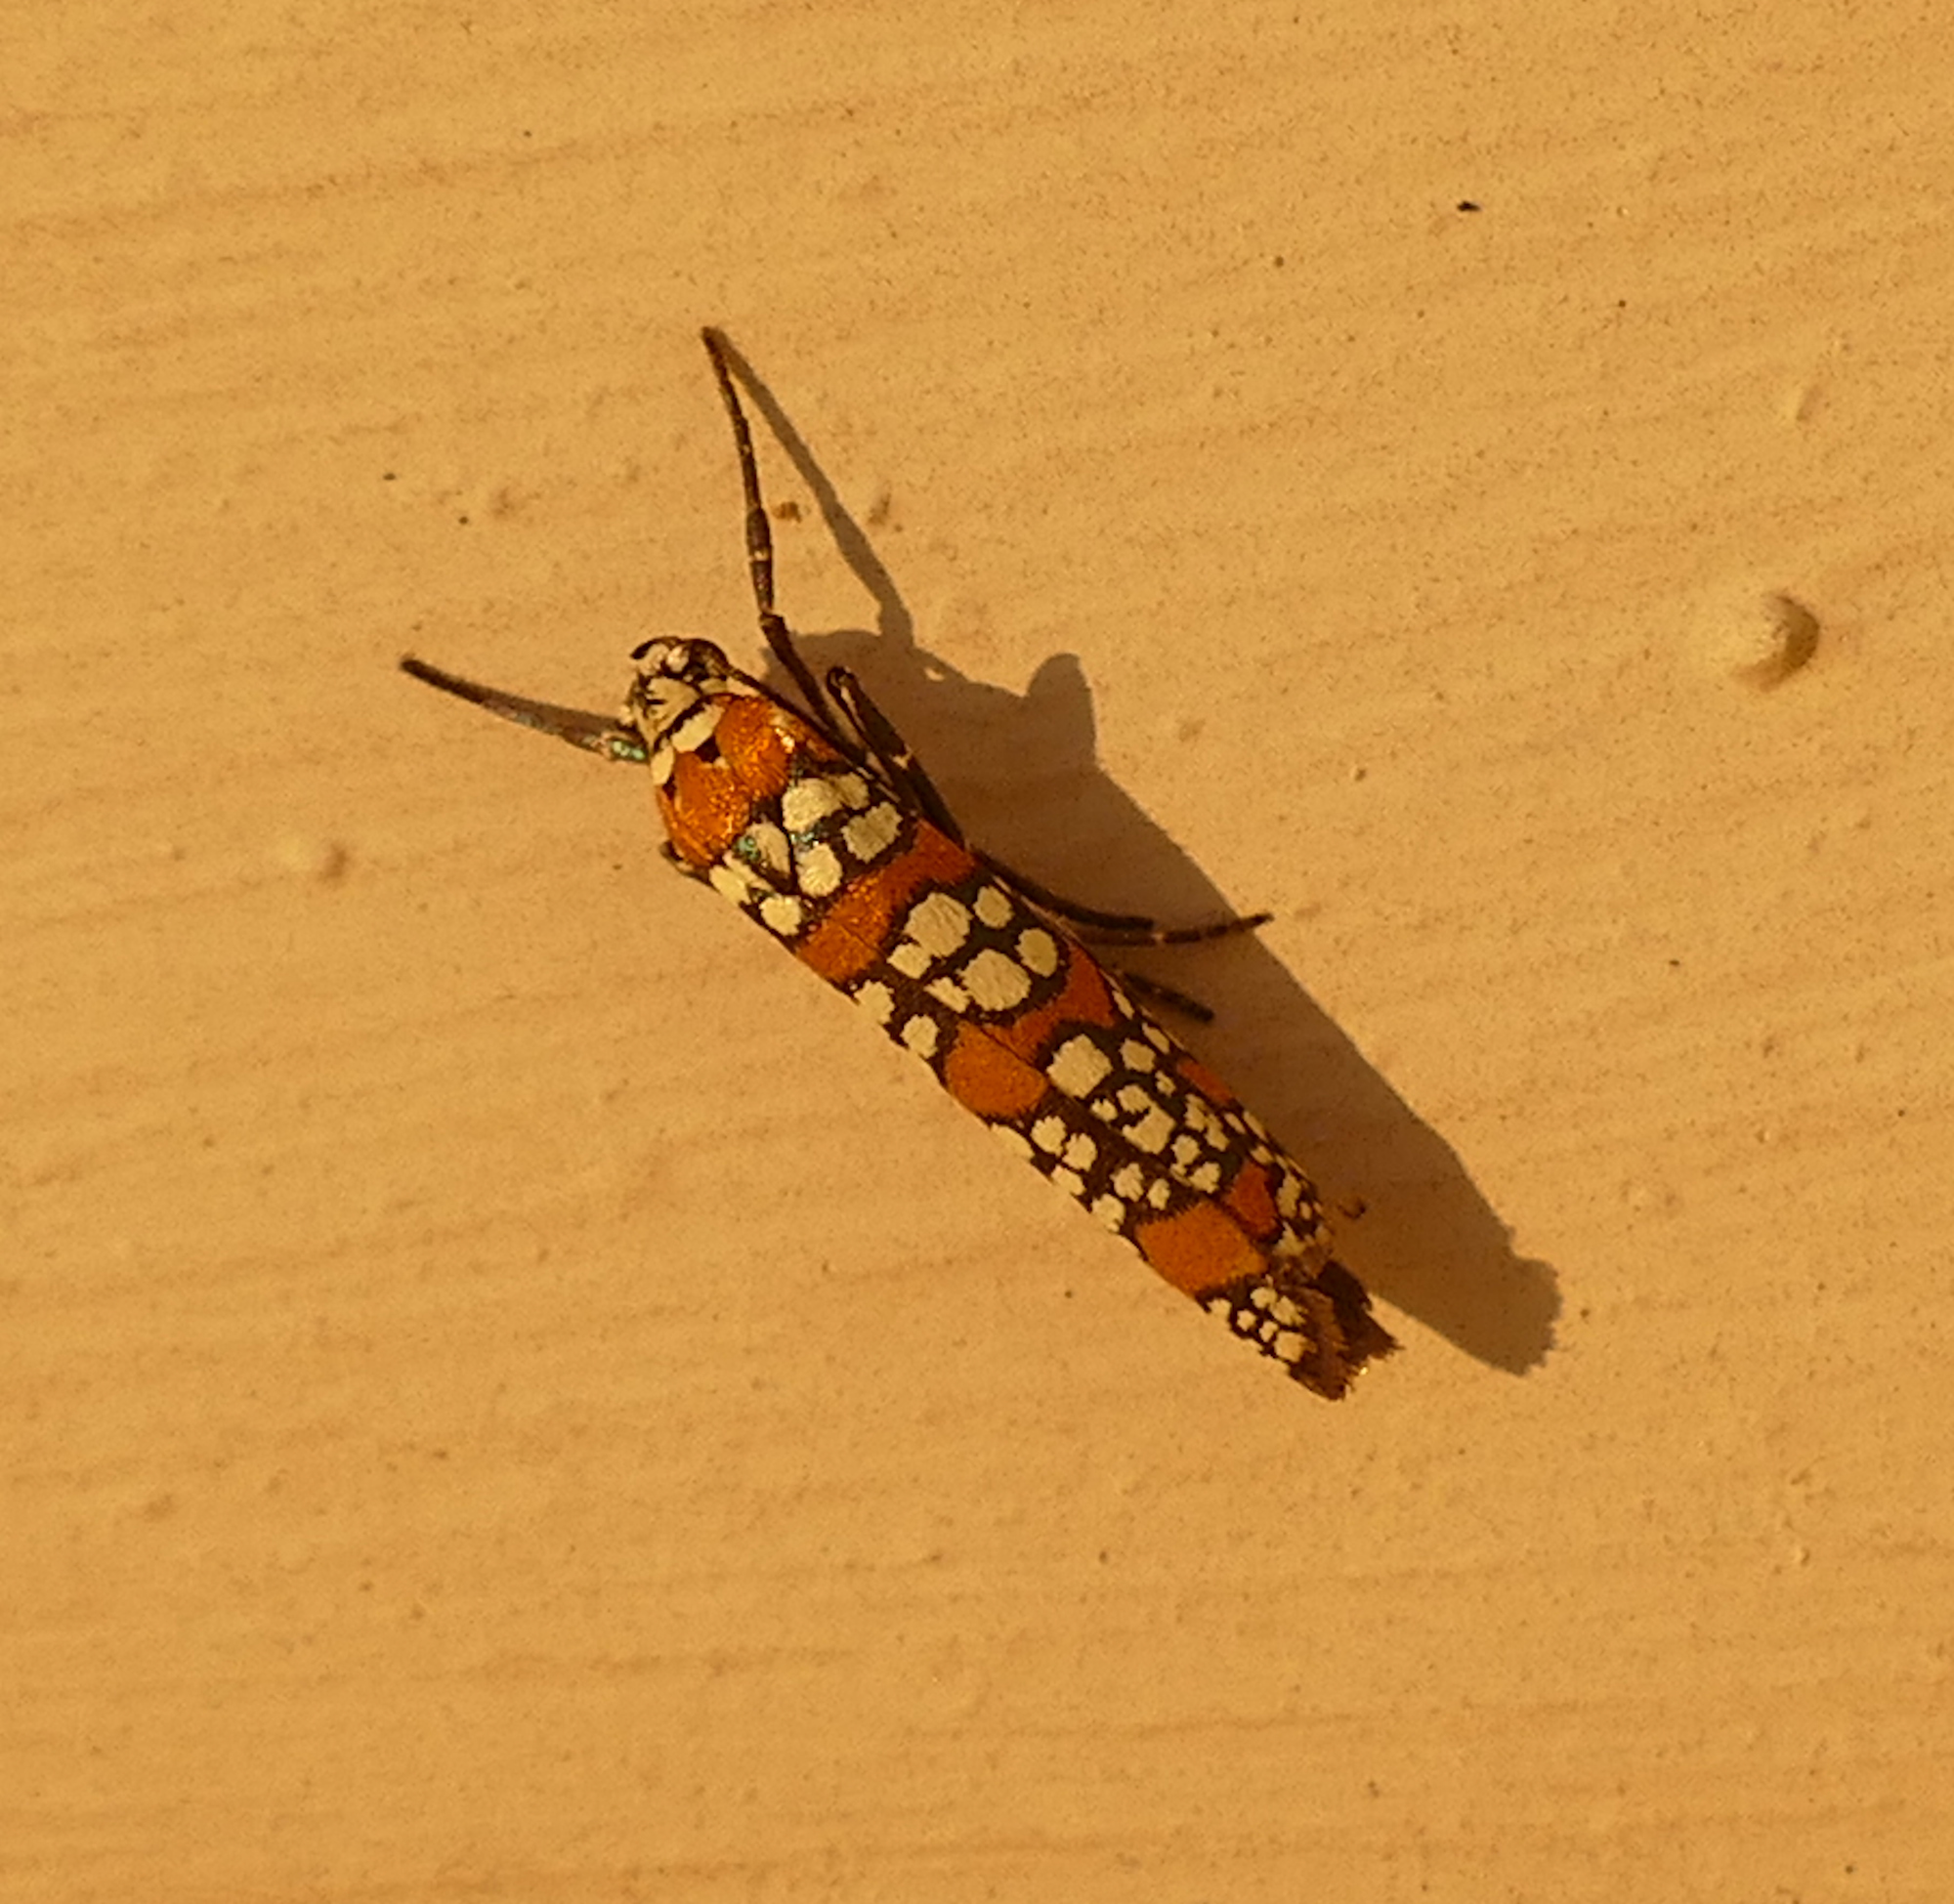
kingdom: Animalia
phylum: Arthropoda
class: Insecta
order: Lepidoptera
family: Attevidae
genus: Atteva
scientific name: Atteva punctella
